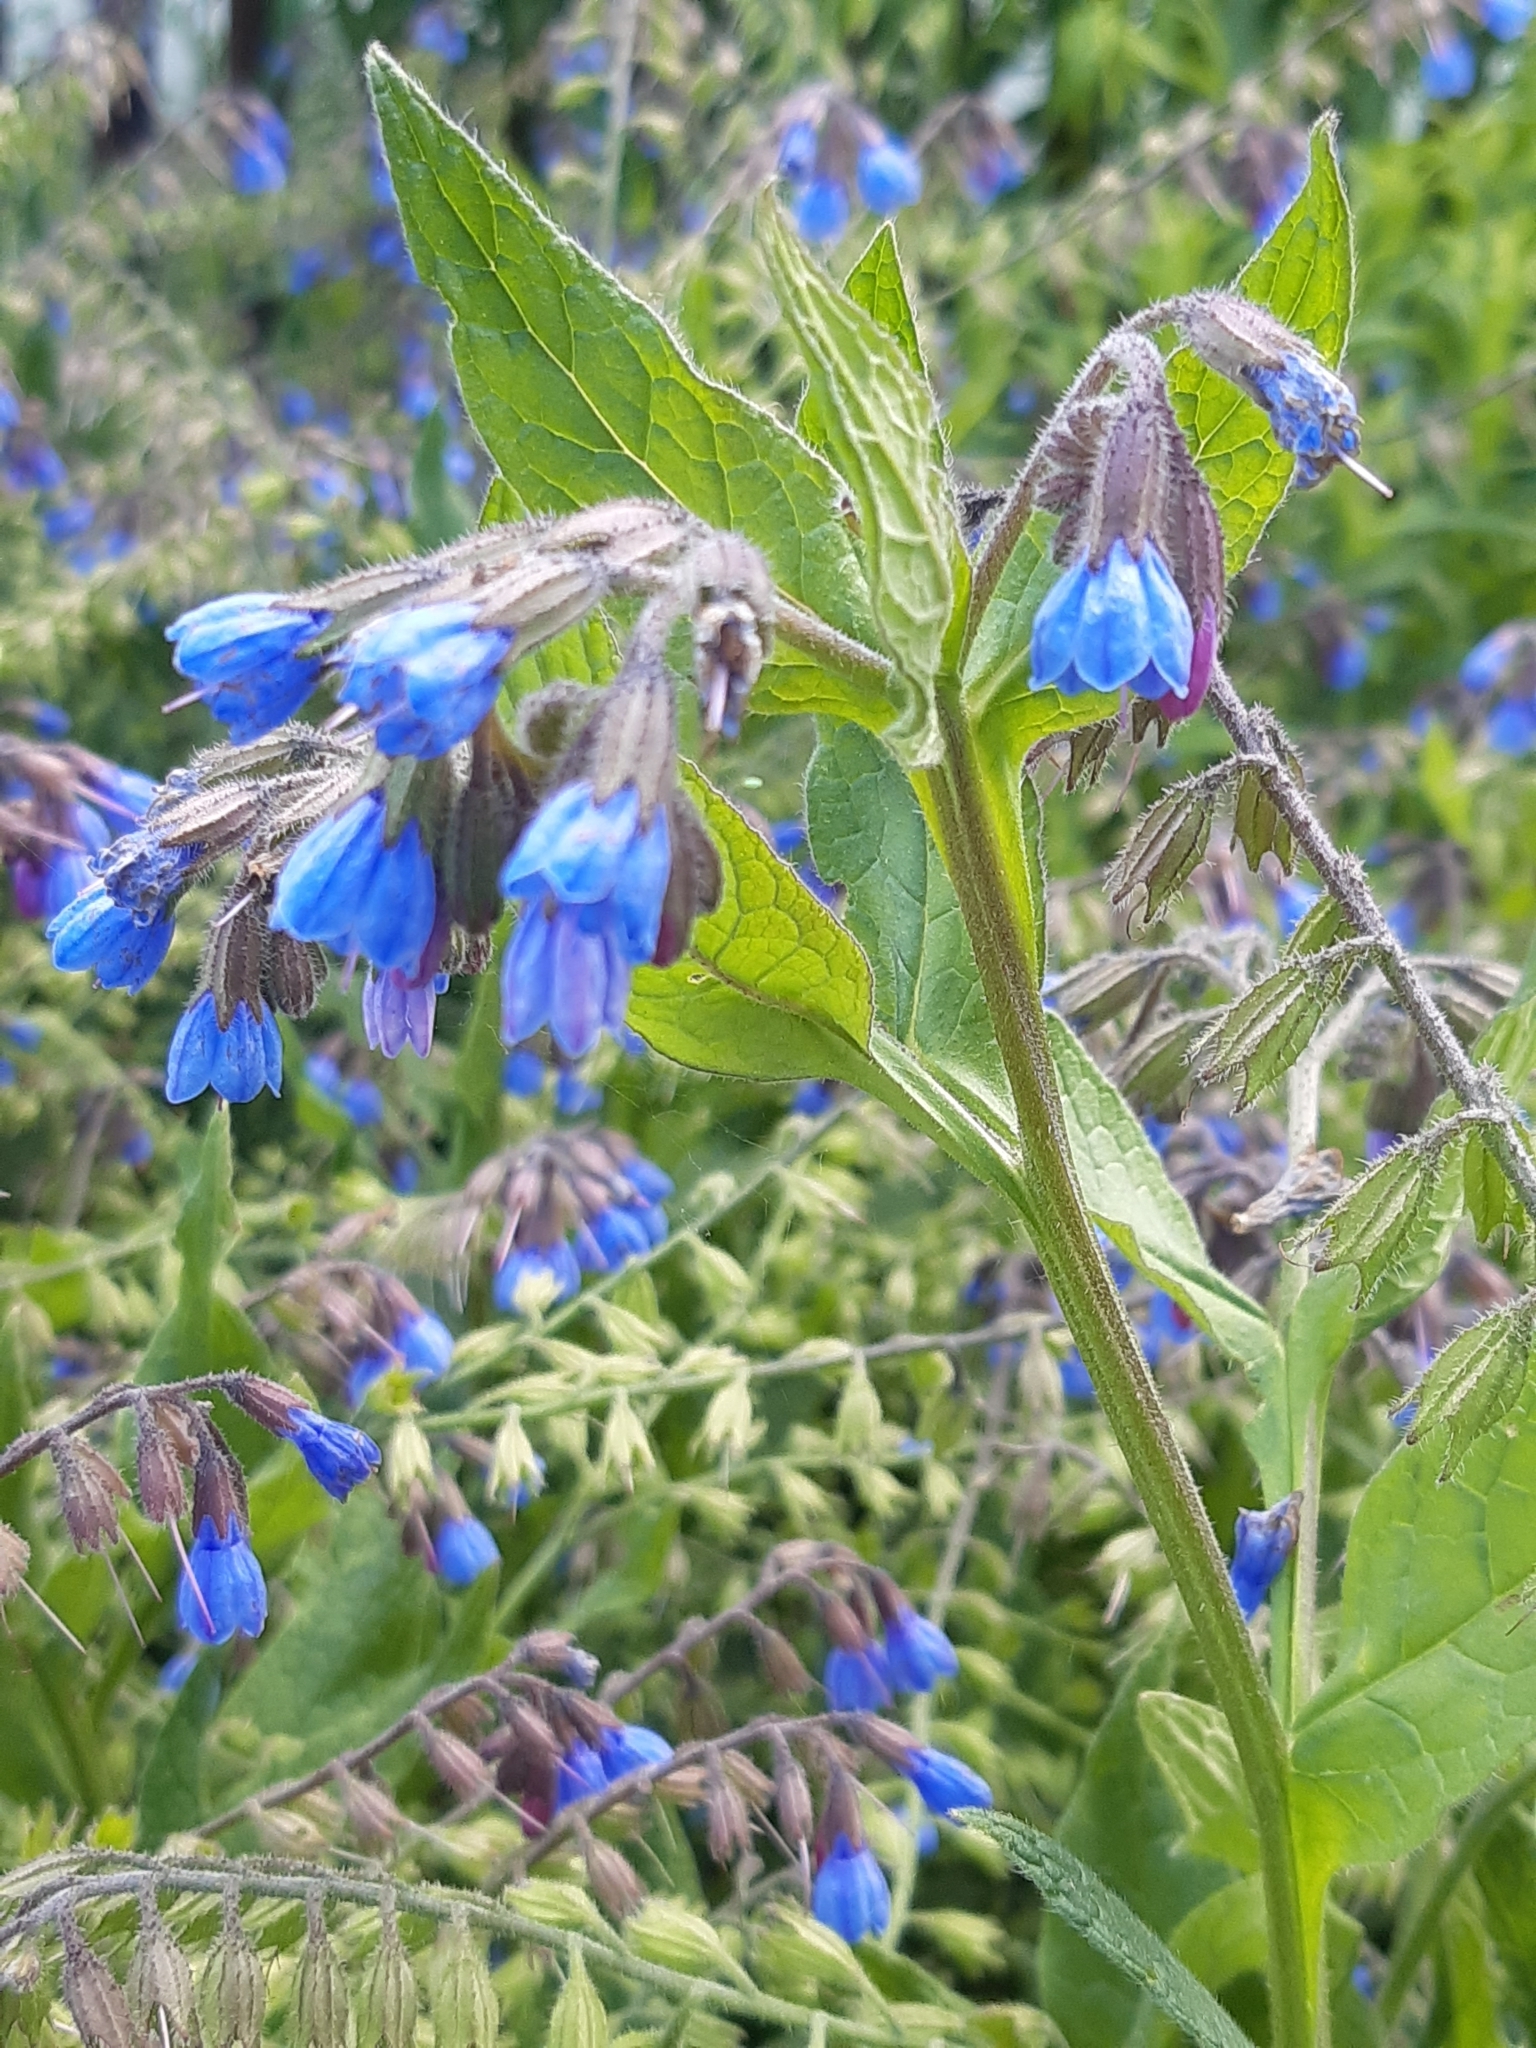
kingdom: Plantae
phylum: Tracheophyta
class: Magnoliopsida
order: Boraginales
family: Boraginaceae
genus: Symphytum
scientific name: Symphytum caucasicum
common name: Caucasian comfrey
